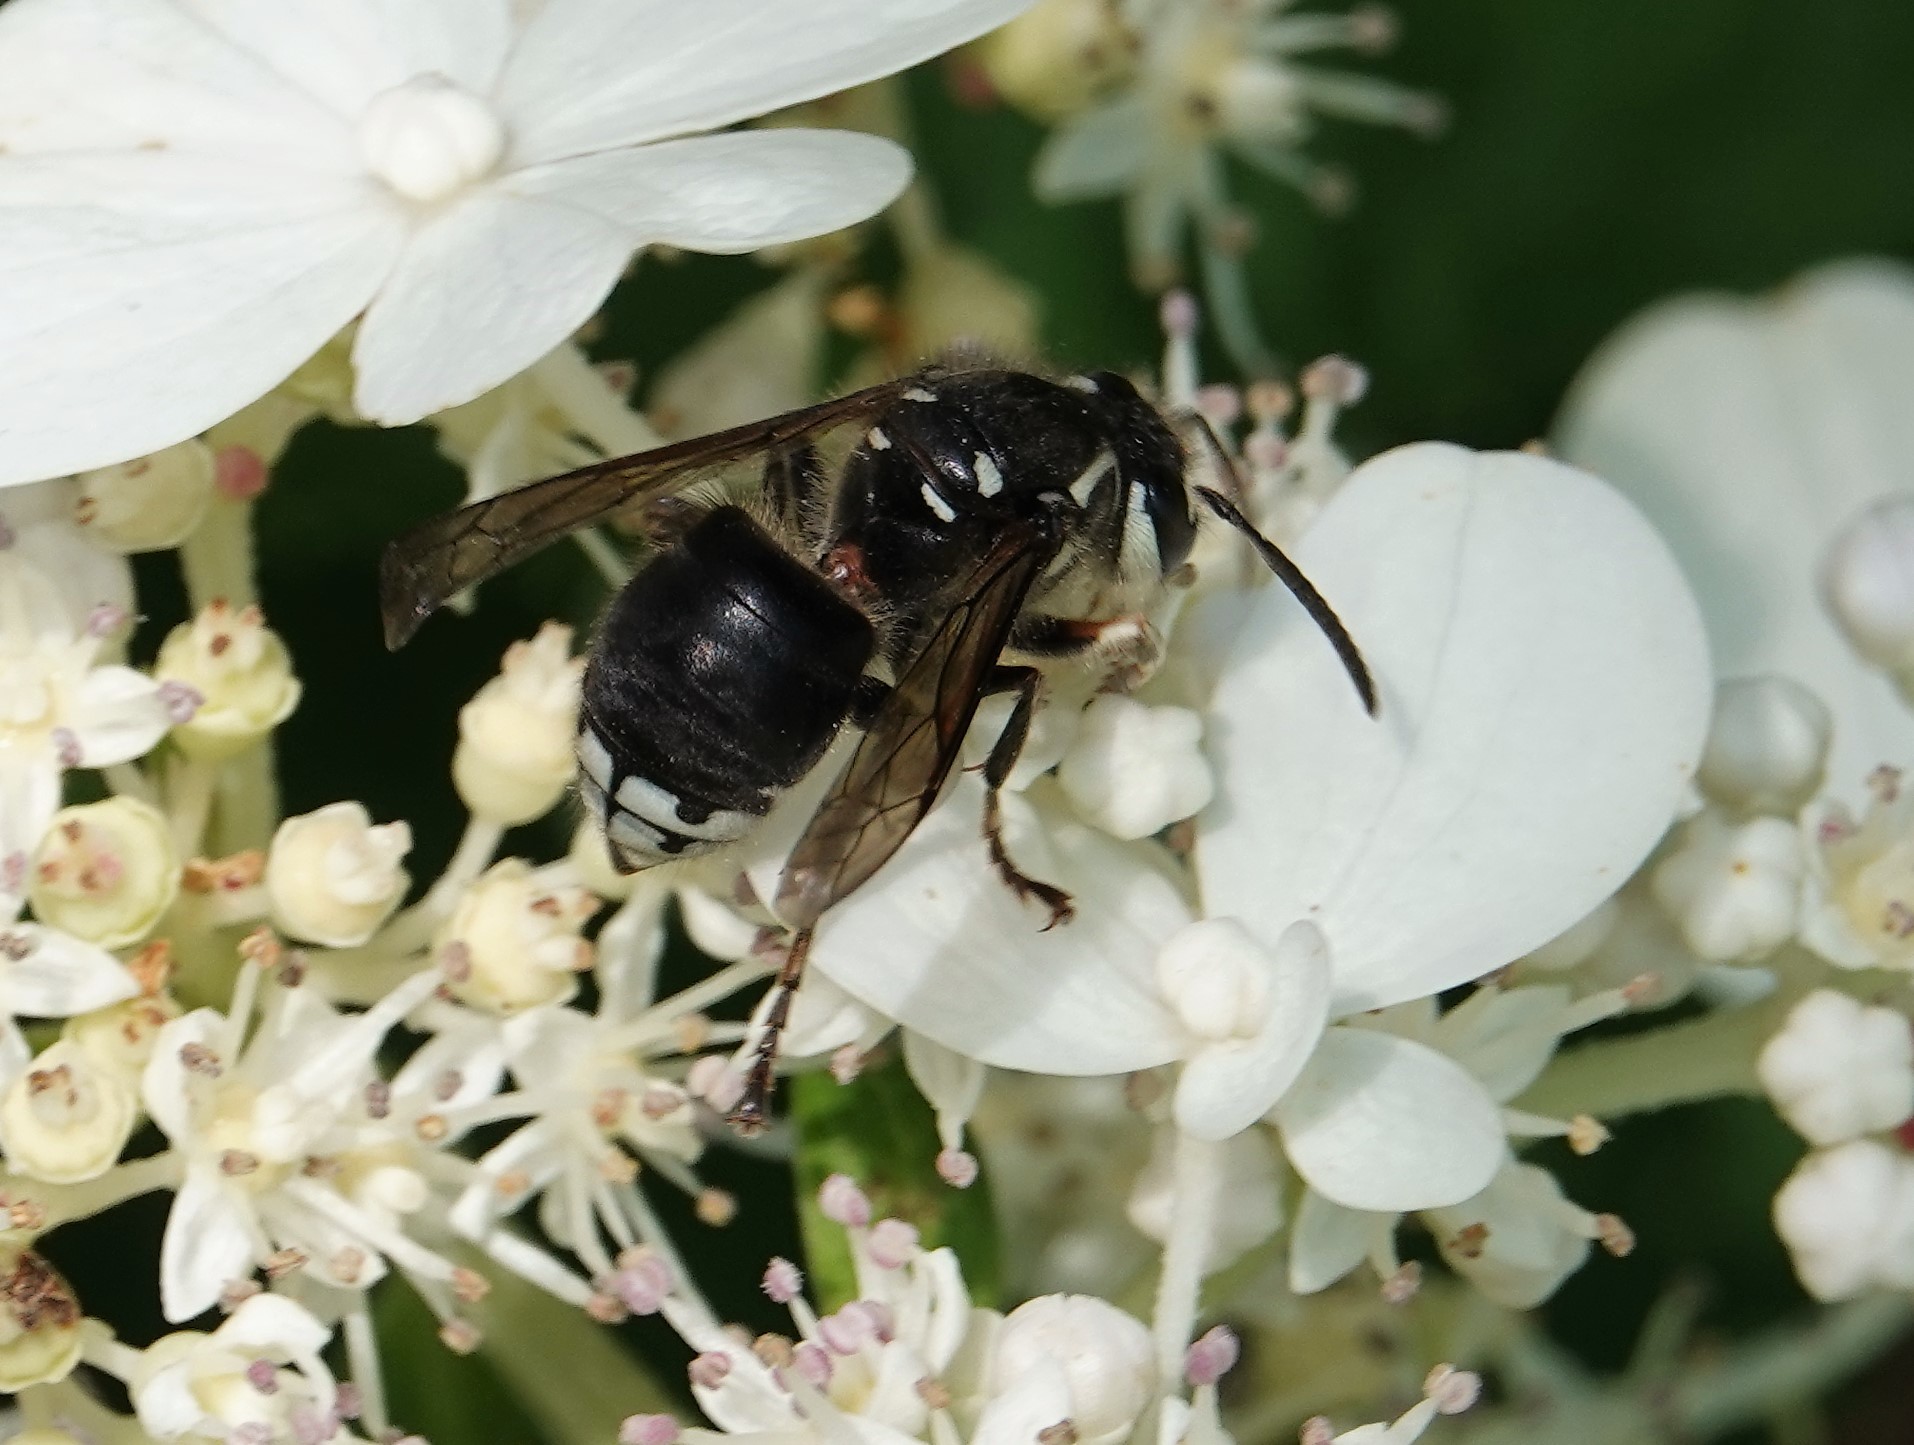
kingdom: Animalia
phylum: Arthropoda
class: Insecta
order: Hymenoptera
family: Vespidae
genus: Dolichovespula
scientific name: Dolichovespula maculata
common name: Bald-faced hornet
